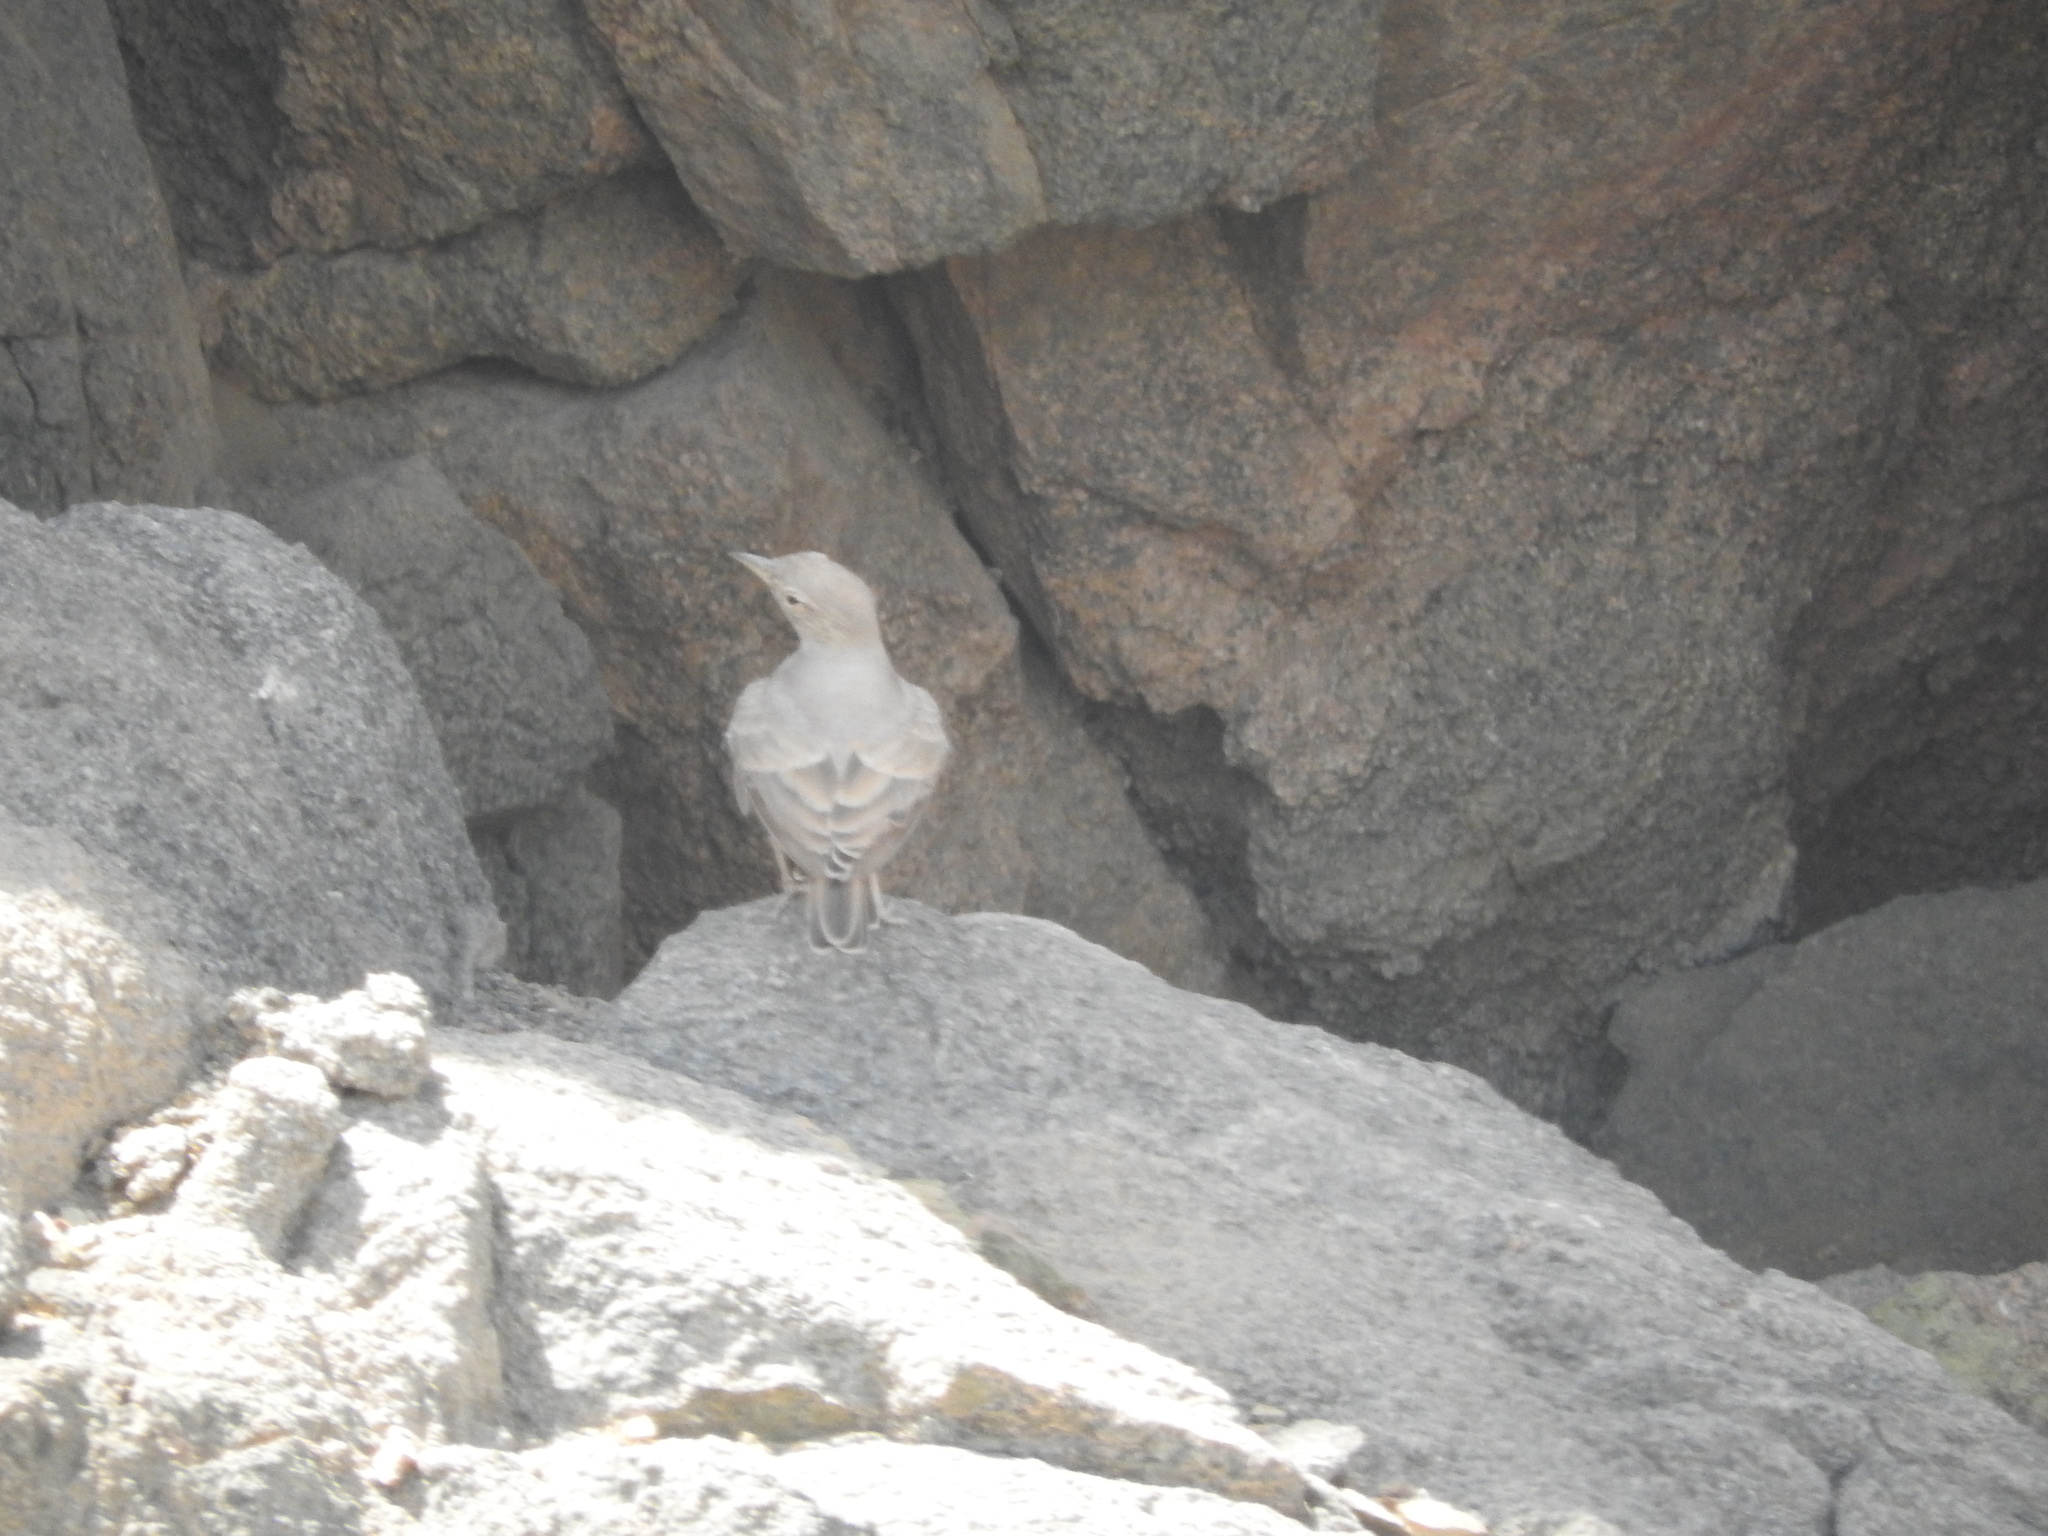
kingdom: Animalia
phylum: Chordata
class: Aves
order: Passeriformes
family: Alaudidae
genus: Ammomanes
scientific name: Ammomanes deserti
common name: Desert lark
